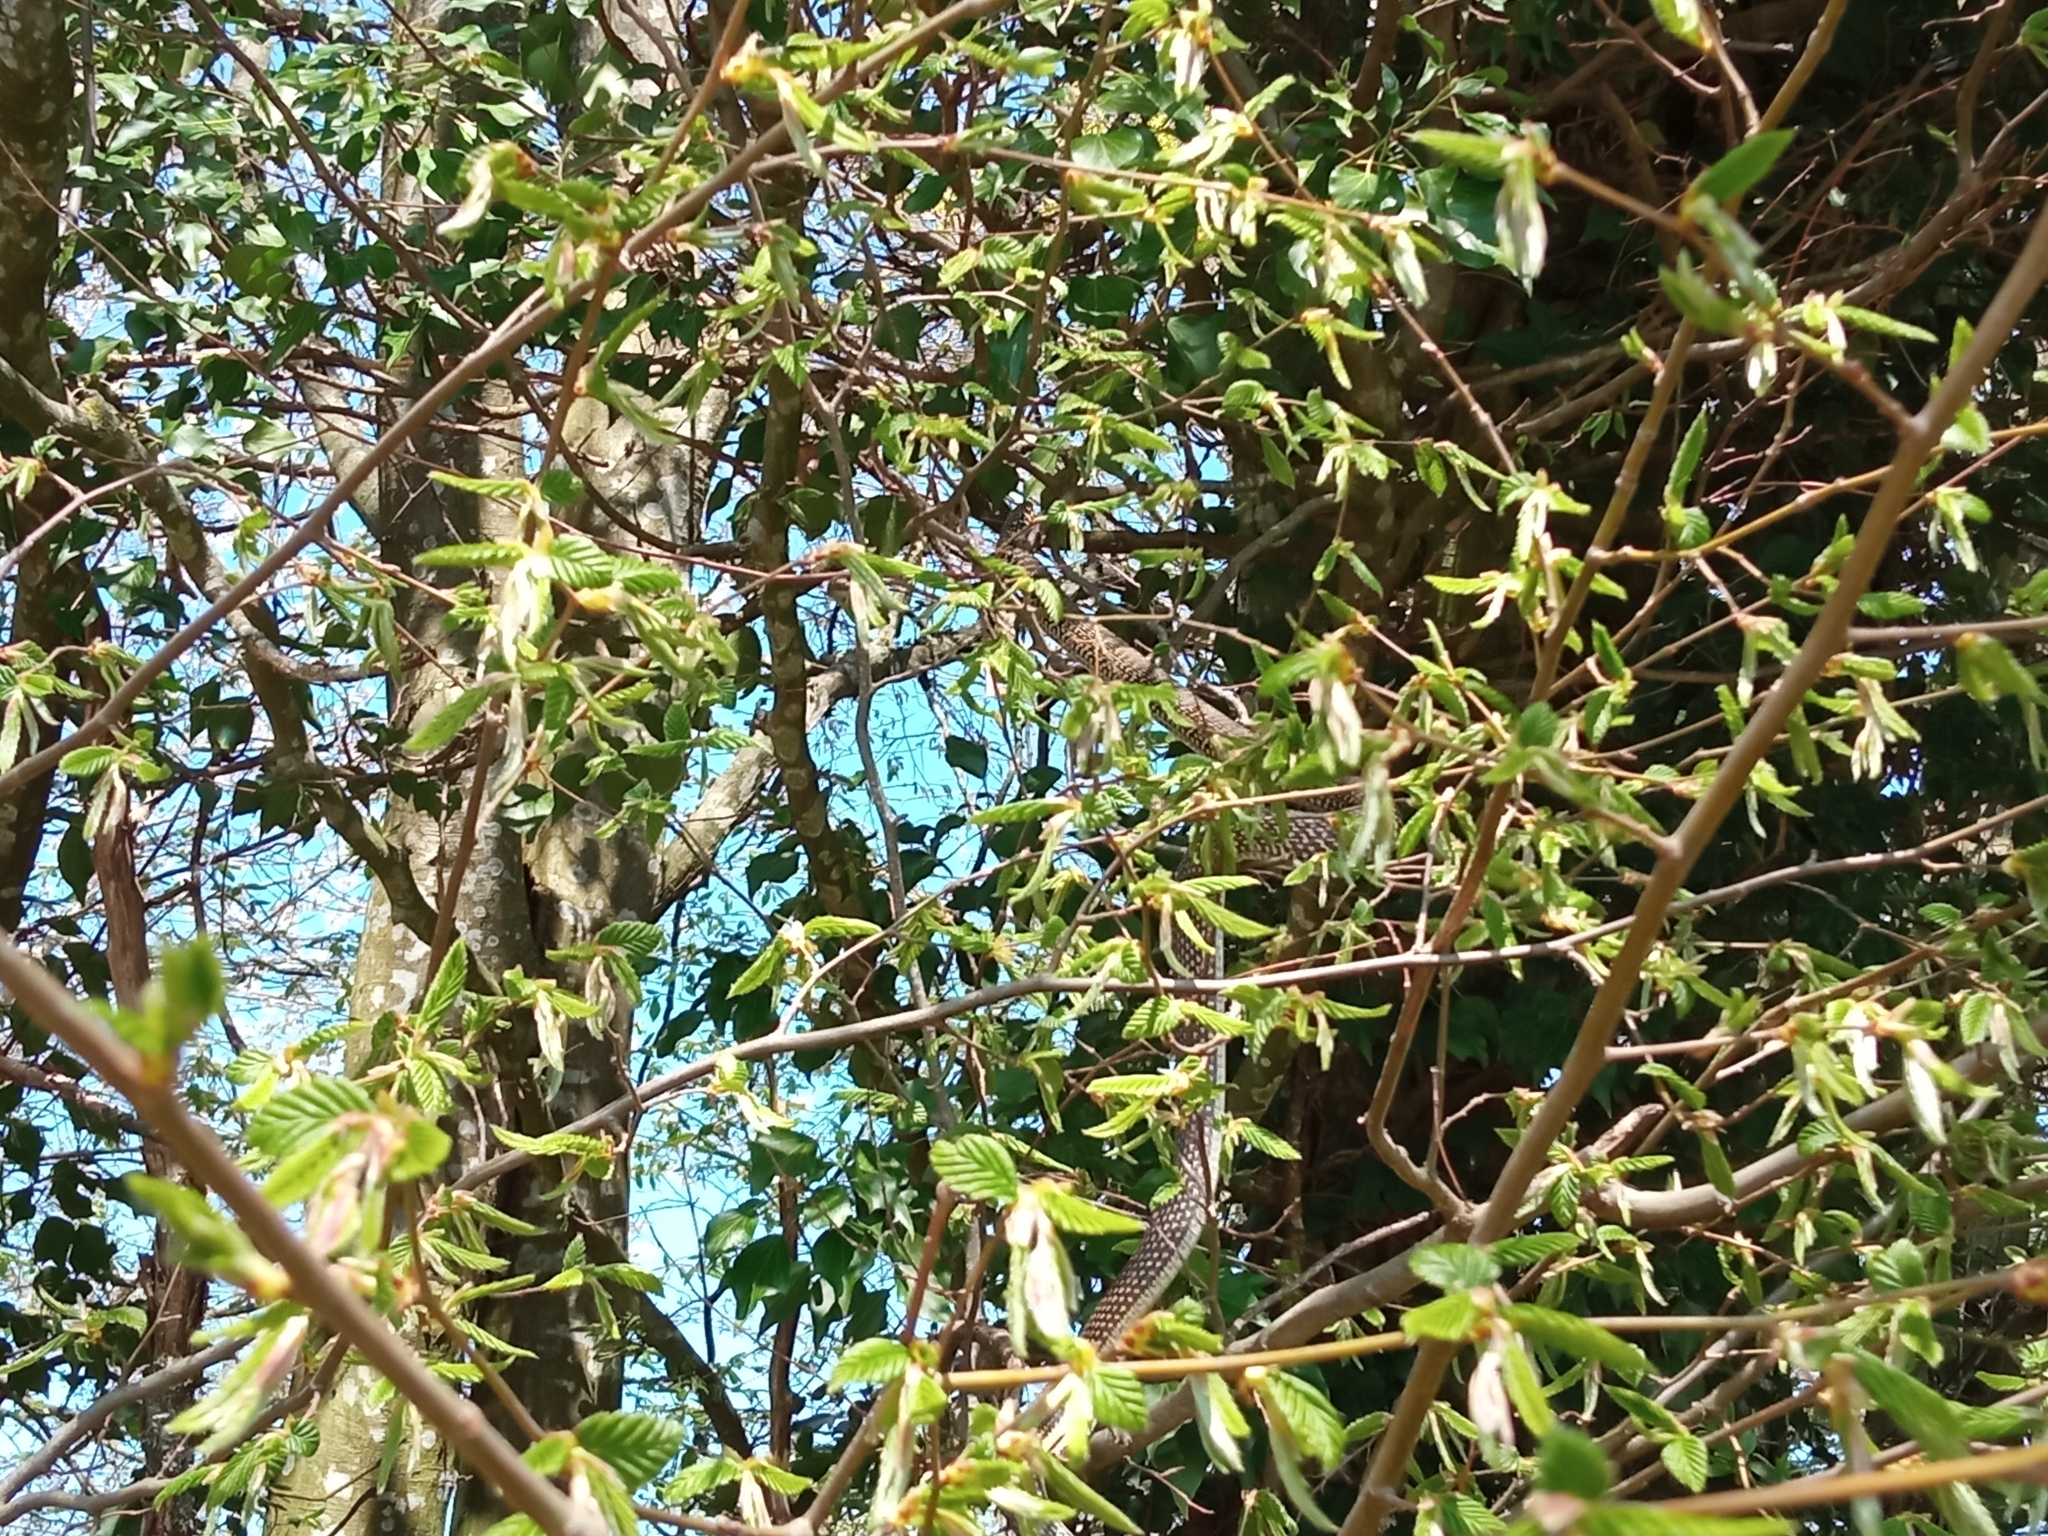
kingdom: Animalia
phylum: Chordata
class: Squamata
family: Colubridae
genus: Hierophis
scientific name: Hierophis viridiflavus
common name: Green whip snake
